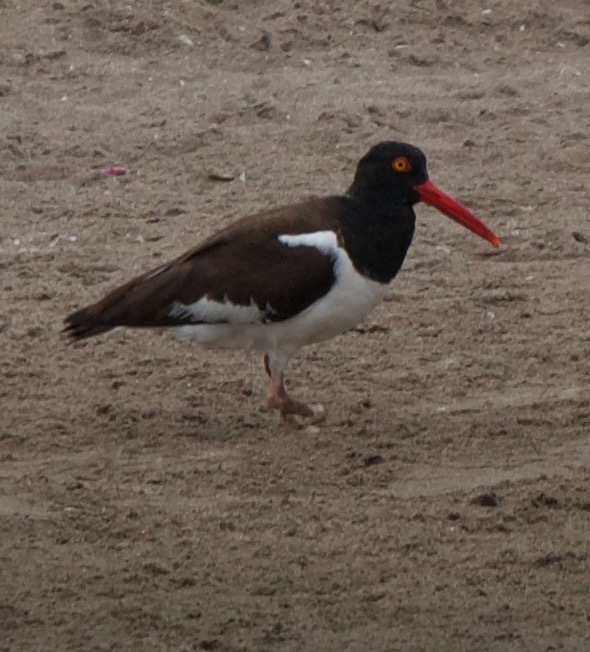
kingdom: Animalia
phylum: Chordata
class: Aves
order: Charadriiformes
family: Haematopodidae
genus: Haematopus
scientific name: Haematopus palliatus
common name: American oystercatcher
